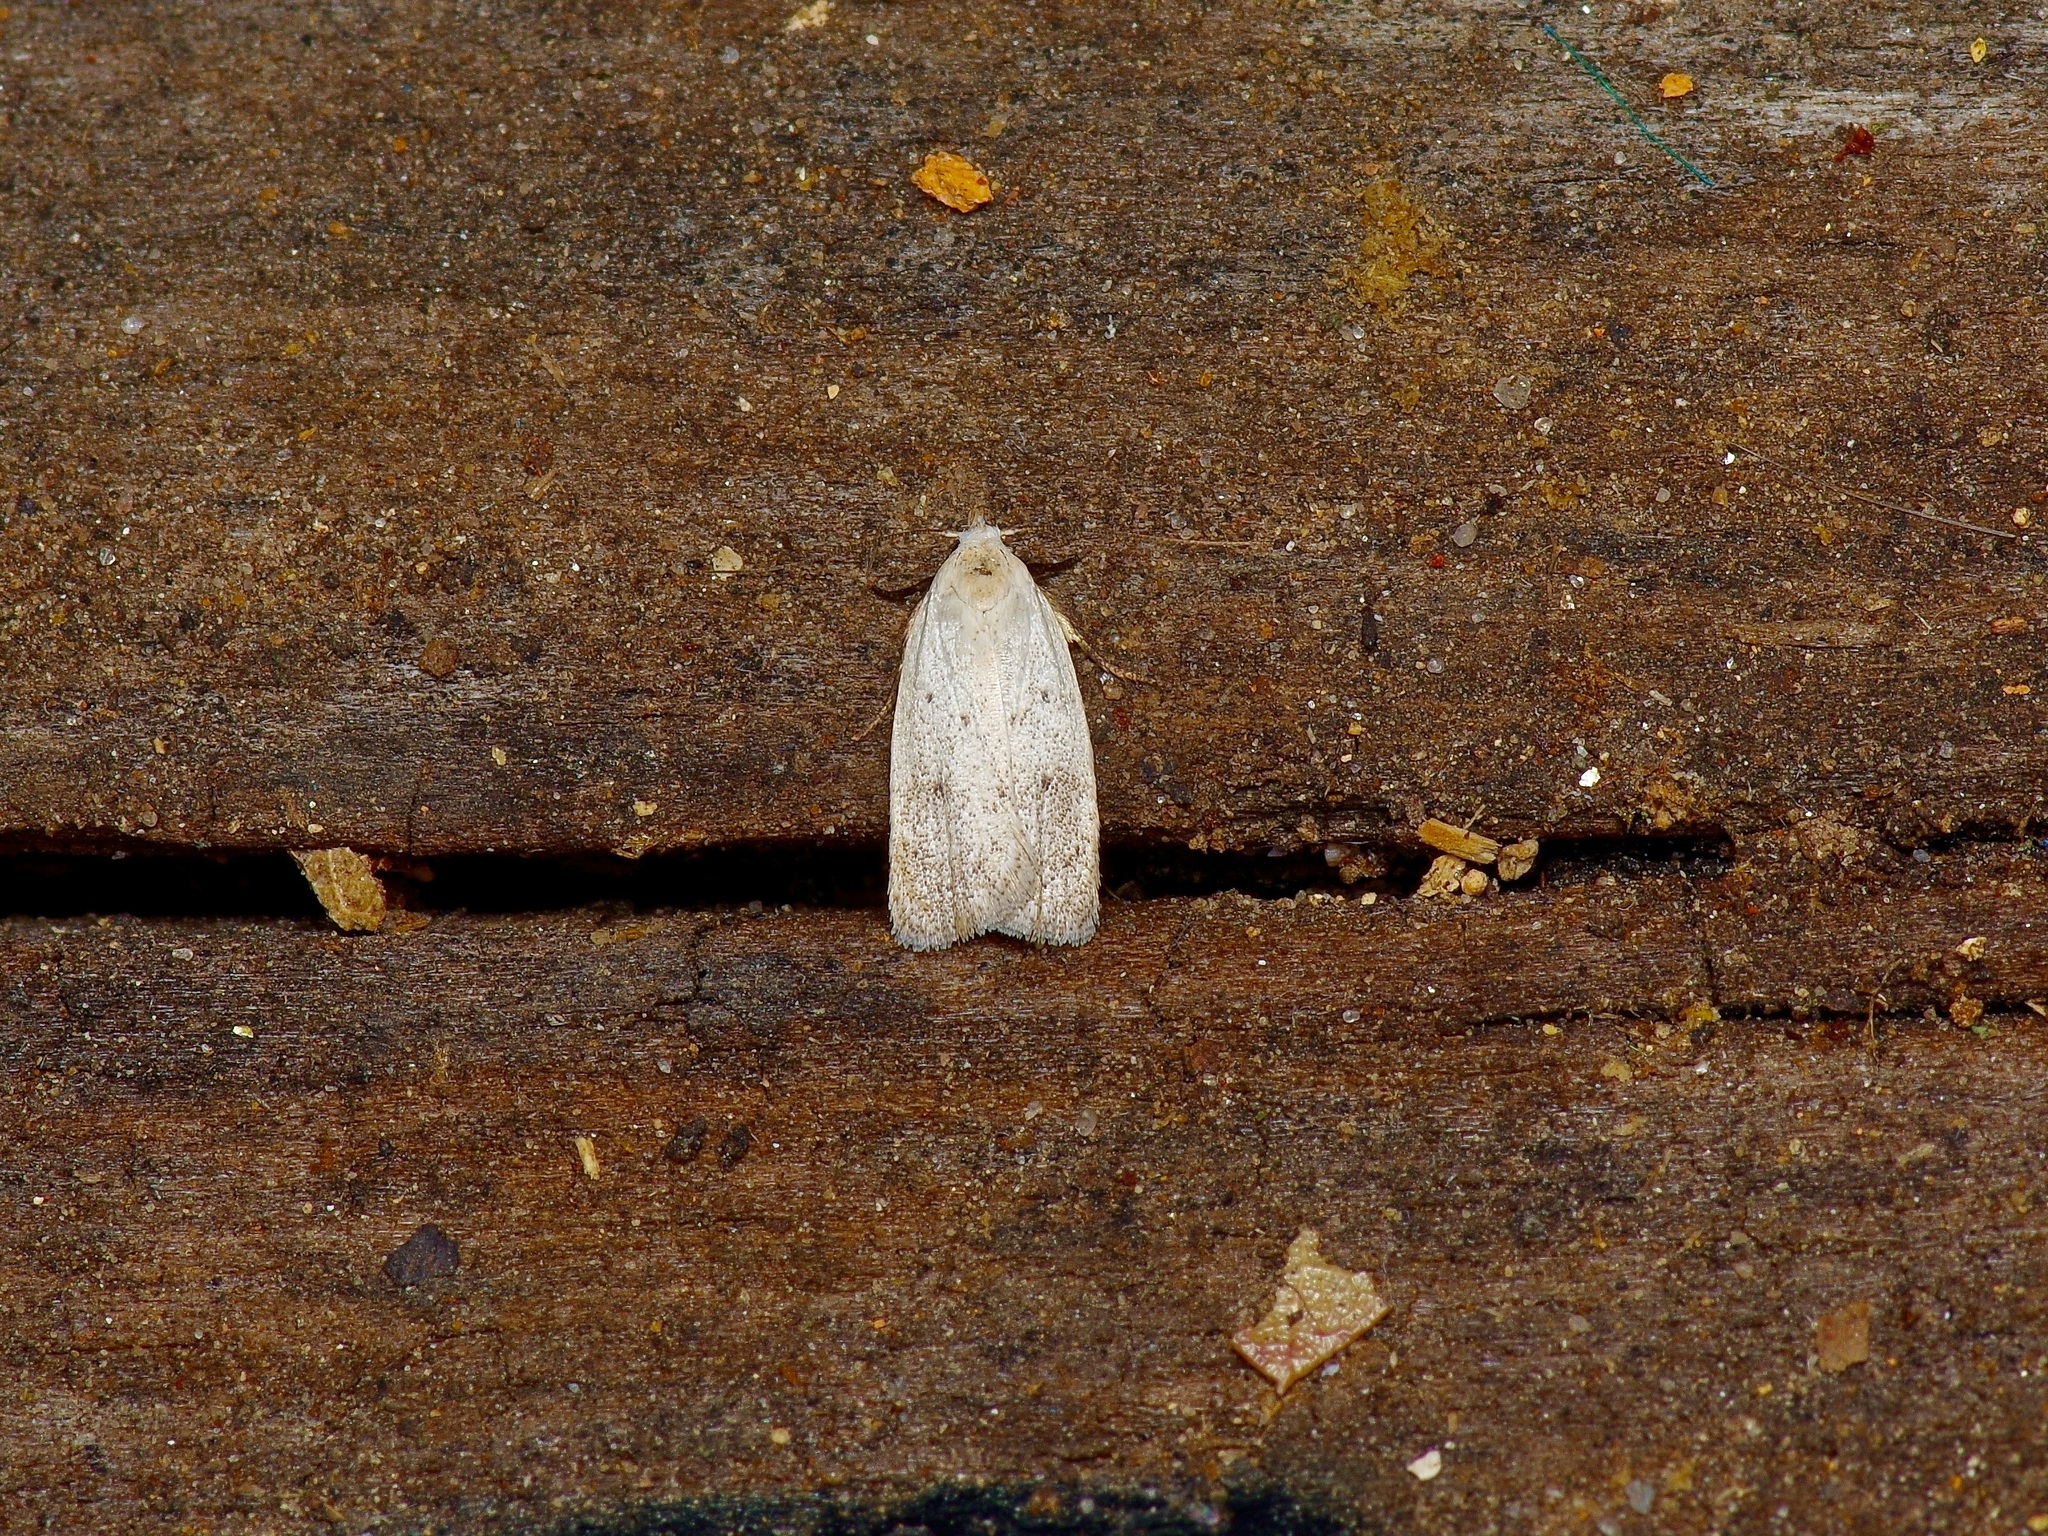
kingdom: Animalia
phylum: Arthropoda
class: Insecta
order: Lepidoptera
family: Oecophoridae
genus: Inga
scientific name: Inga cretacea
